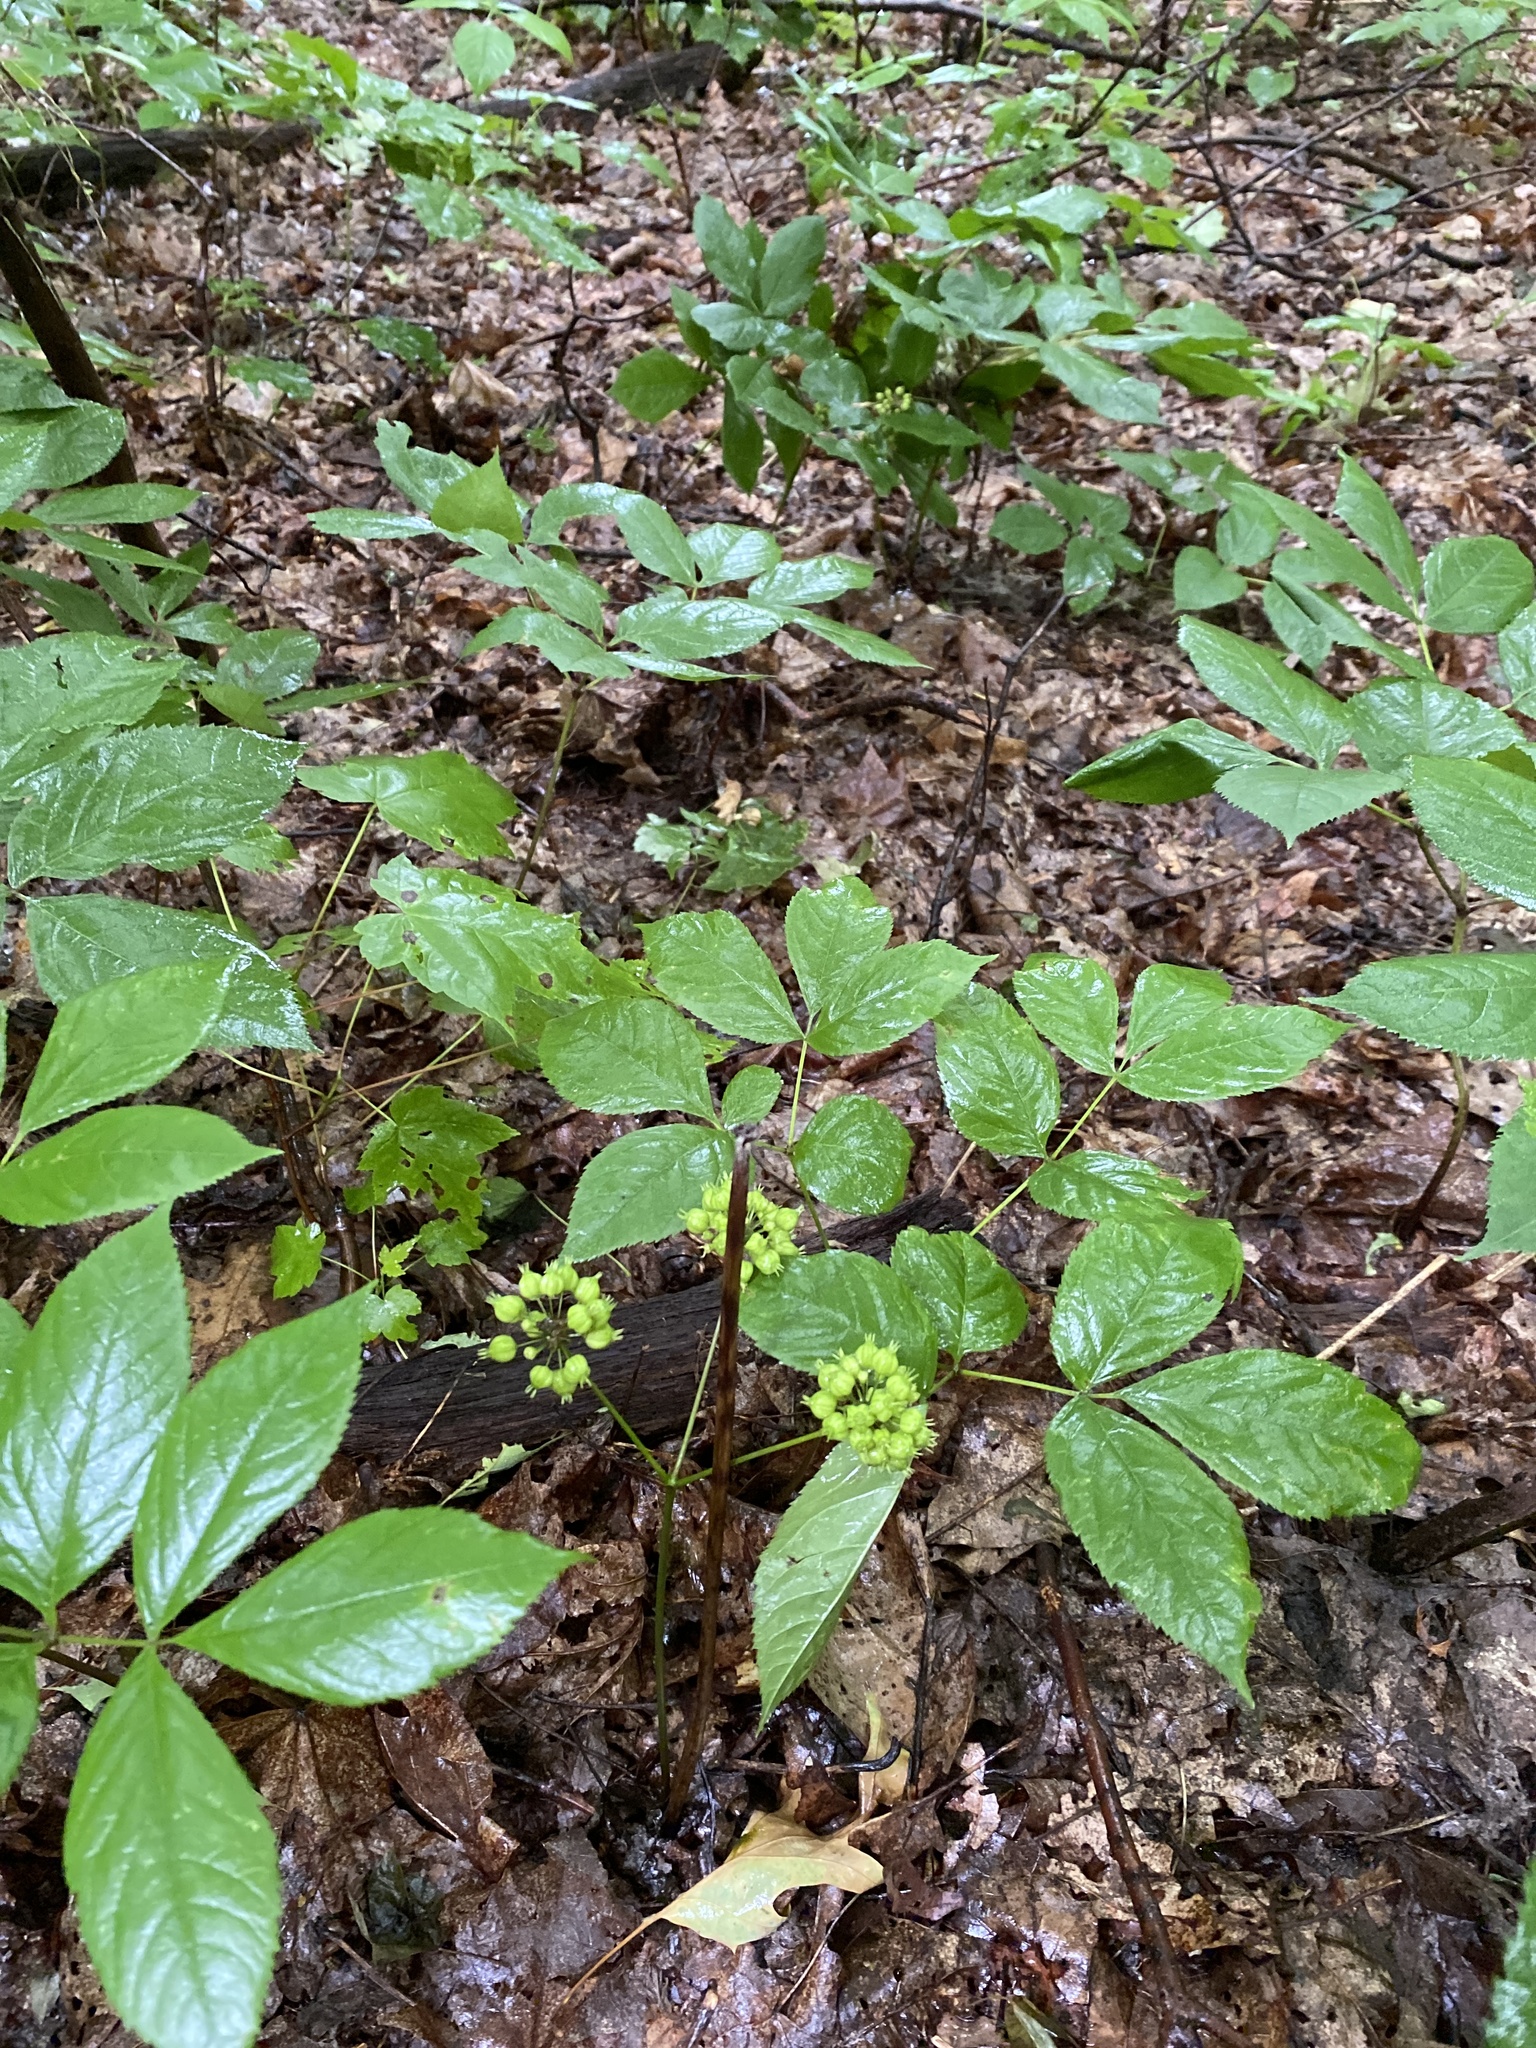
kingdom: Plantae
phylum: Tracheophyta
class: Magnoliopsida
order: Apiales
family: Araliaceae
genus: Aralia
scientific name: Aralia nudicaulis
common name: Wild sarsaparilla
